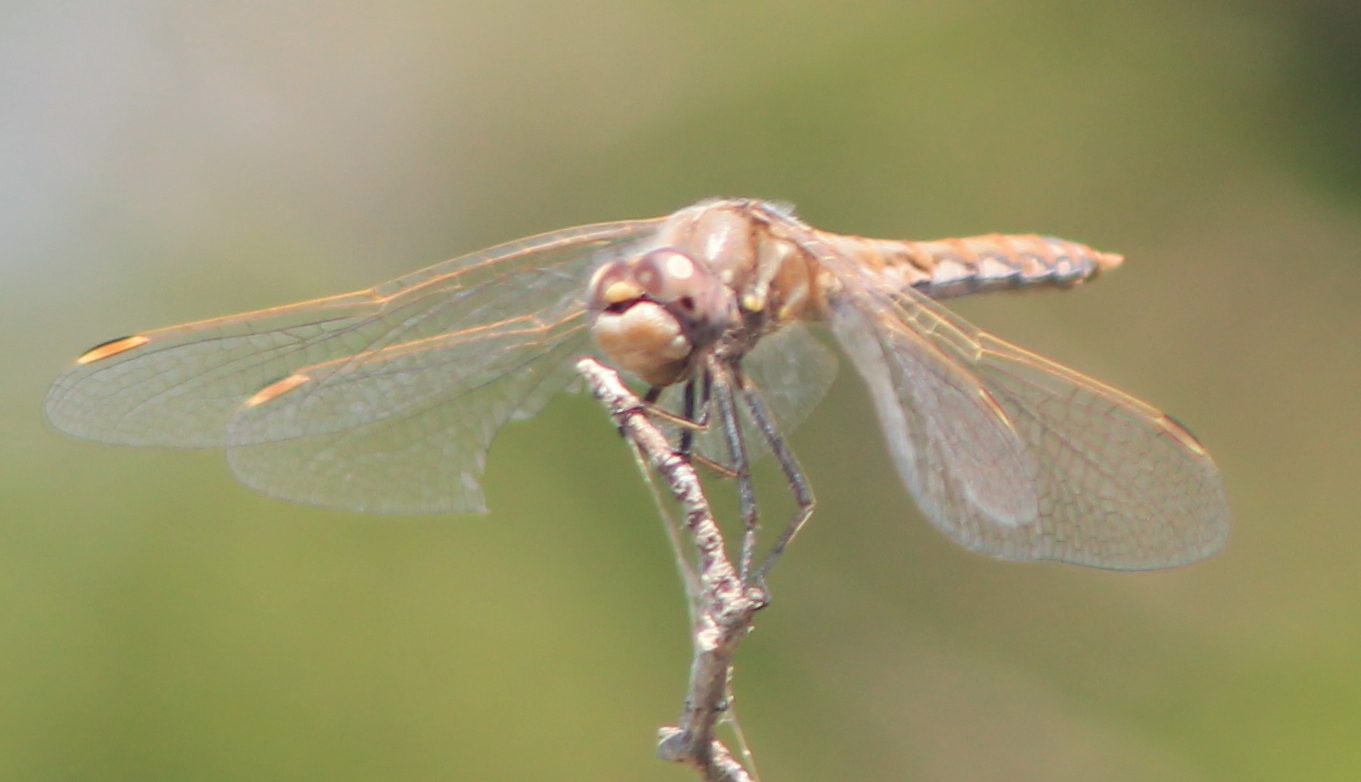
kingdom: Animalia
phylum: Arthropoda
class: Insecta
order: Odonata
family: Libellulidae
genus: Sympetrum
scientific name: Sympetrum corruptum
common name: Variegated meadowhawk
